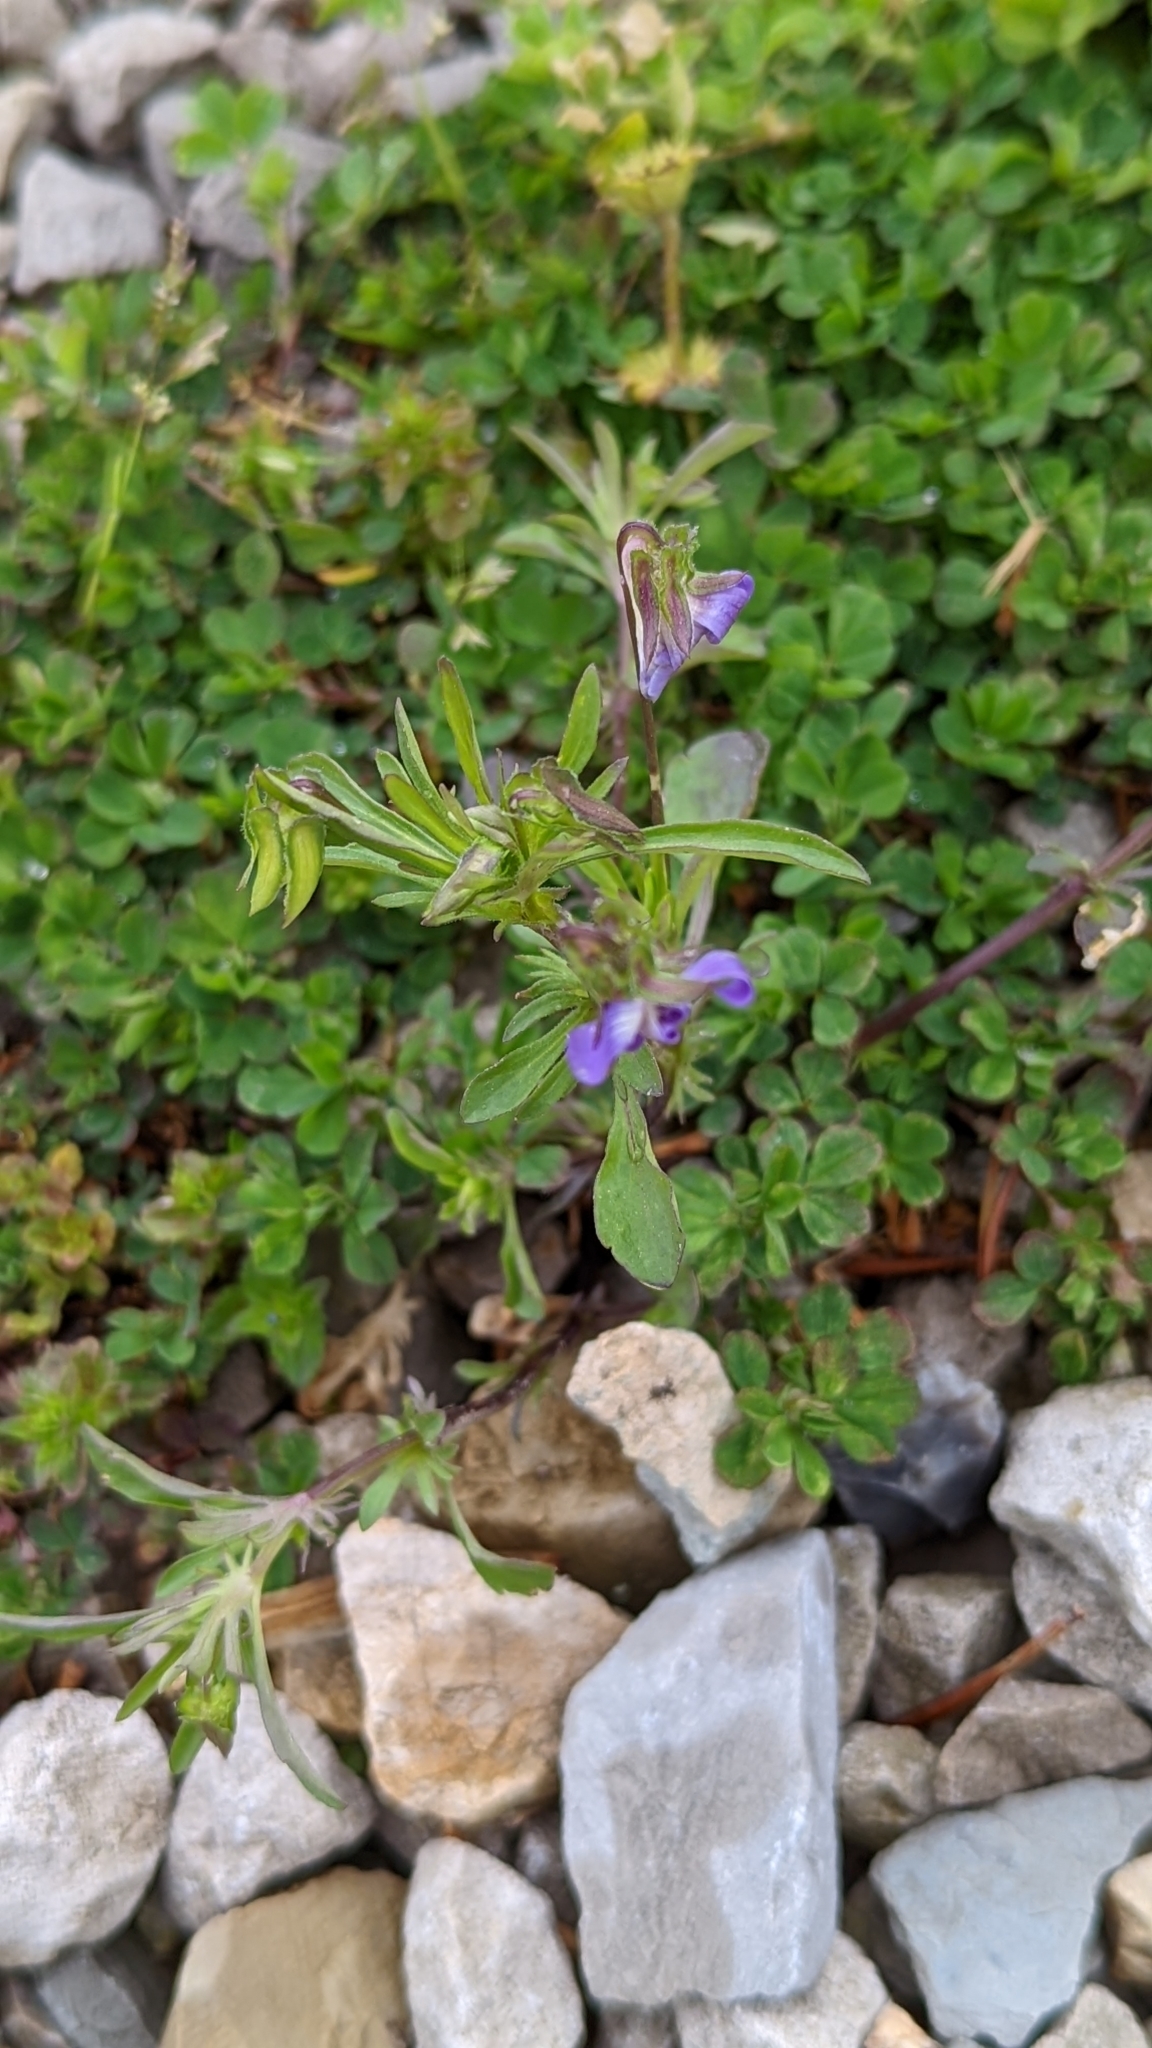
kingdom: Plantae
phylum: Tracheophyta
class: Magnoliopsida
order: Malpighiales
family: Violaceae
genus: Viola
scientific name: Viola rafinesquei
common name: American field pansy
